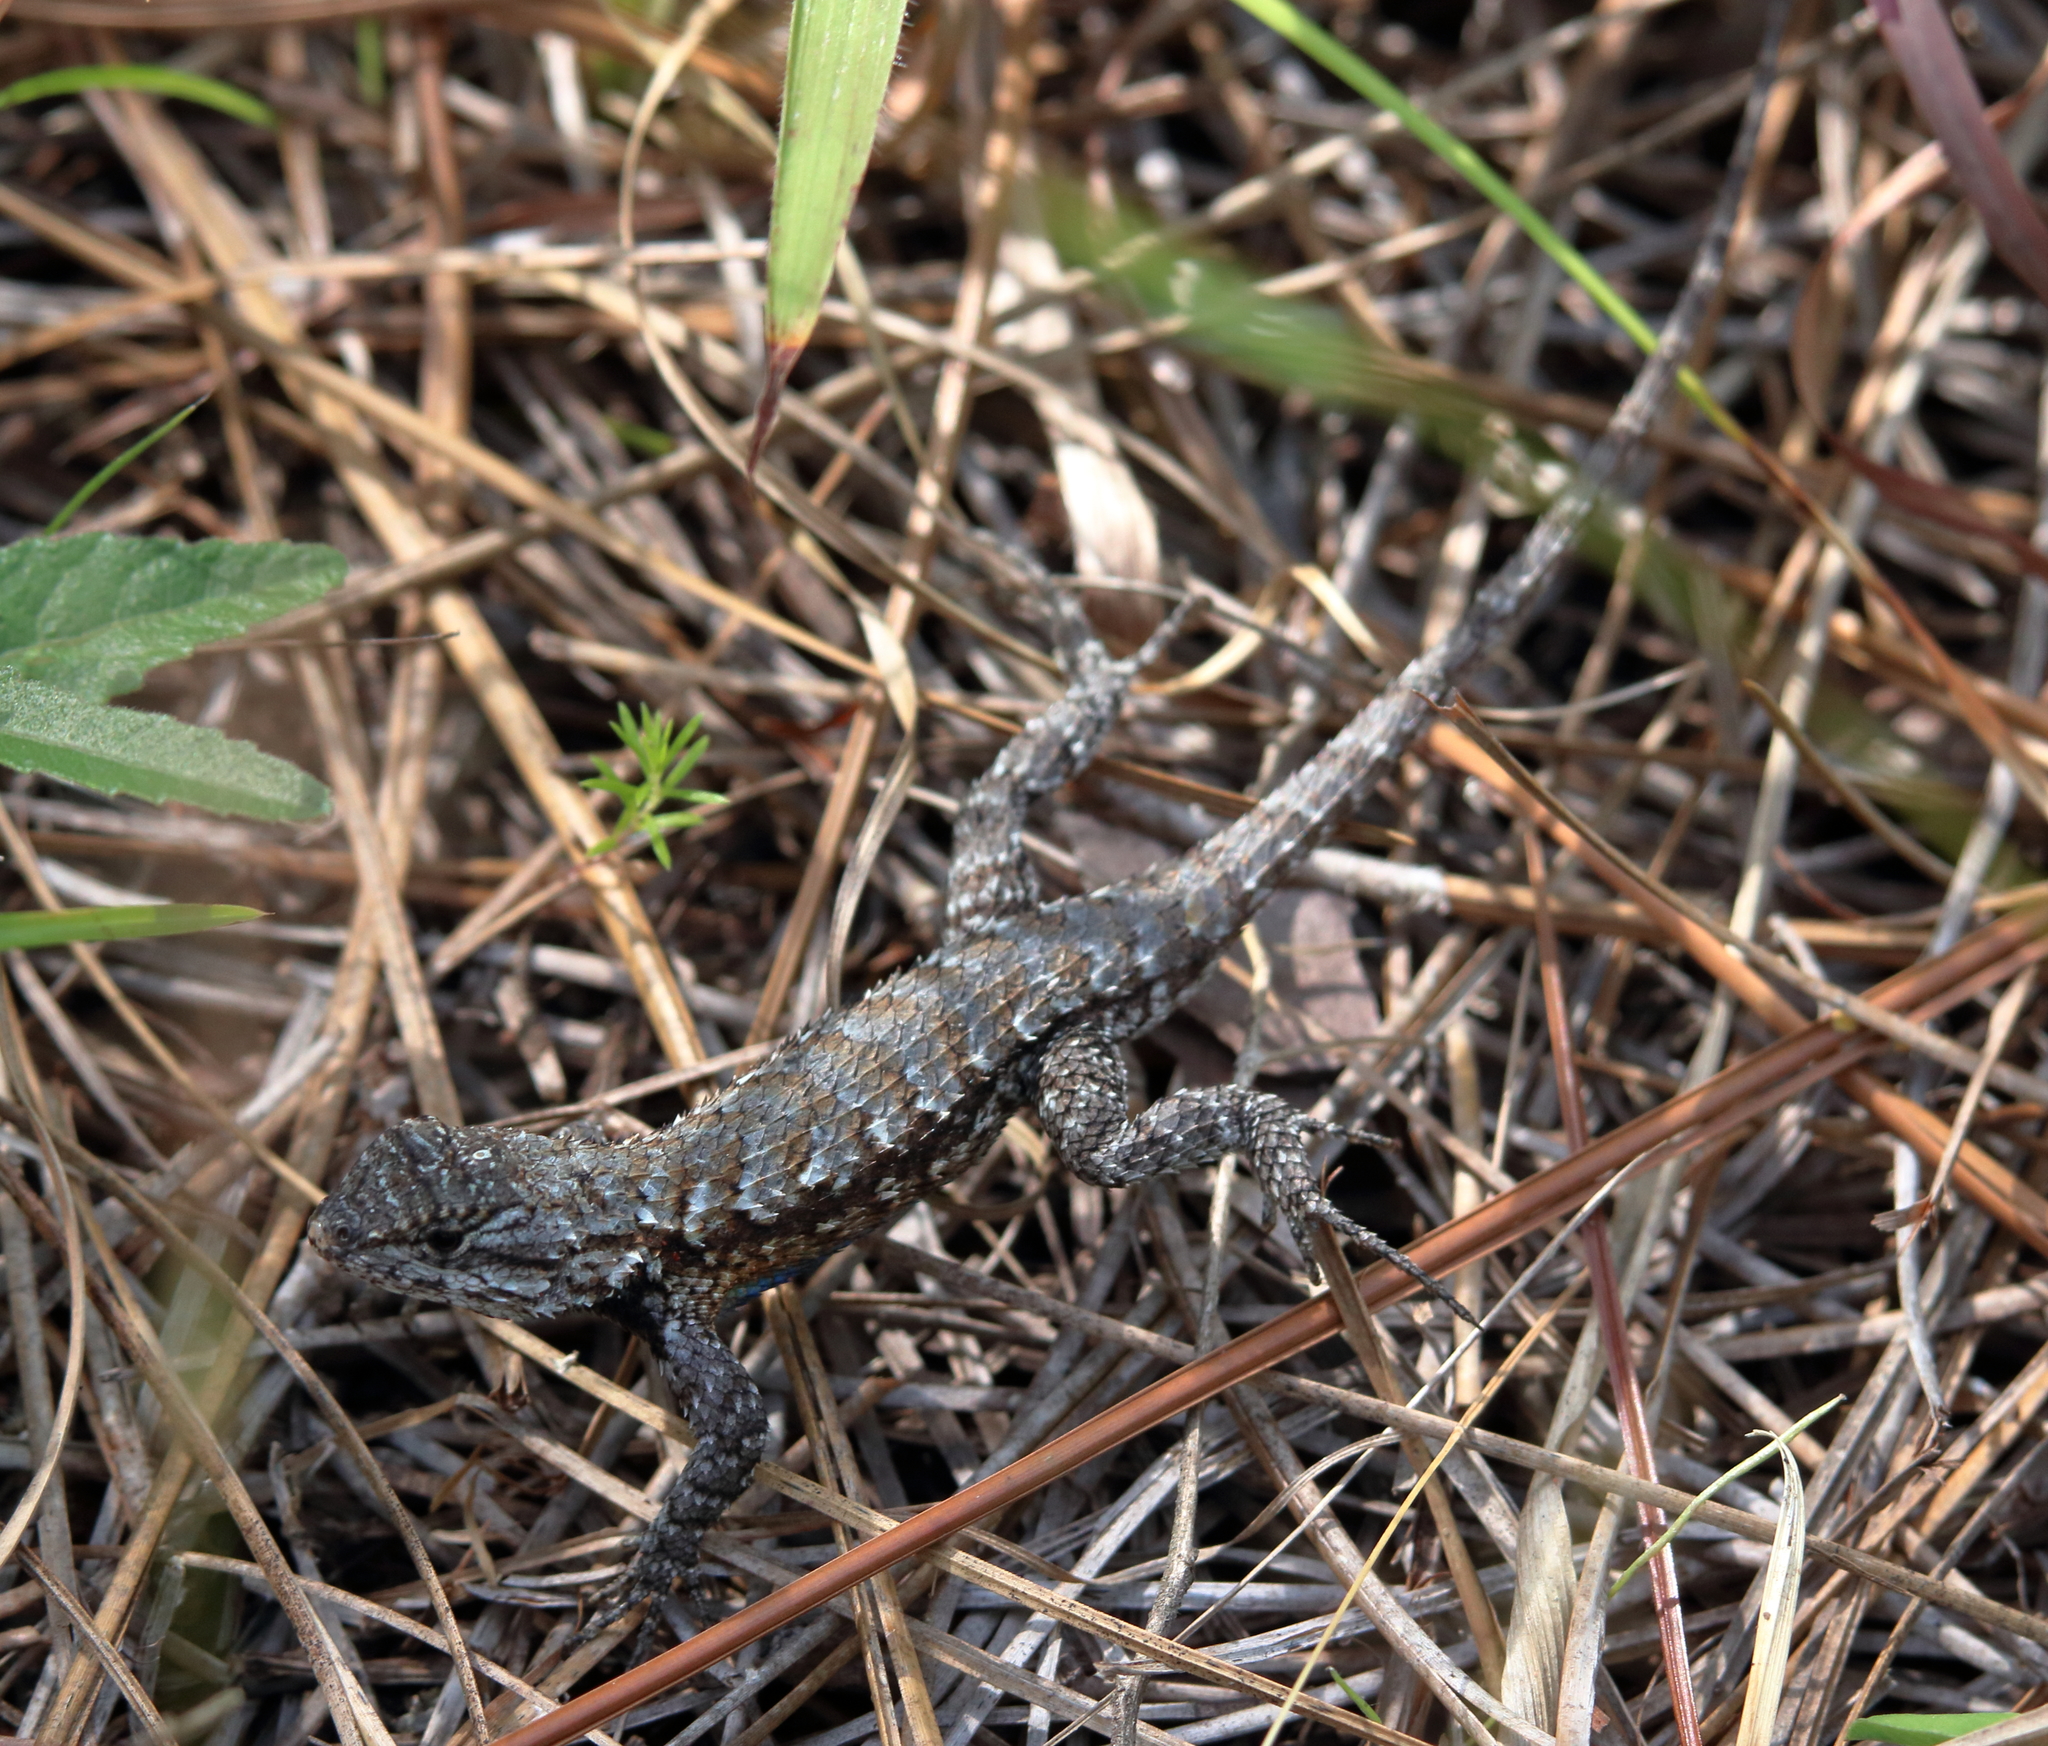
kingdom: Animalia
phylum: Chordata
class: Squamata
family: Phrynosomatidae
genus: Sceloporus
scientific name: Sceloporus consobrinus
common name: Southern prairie lizard
